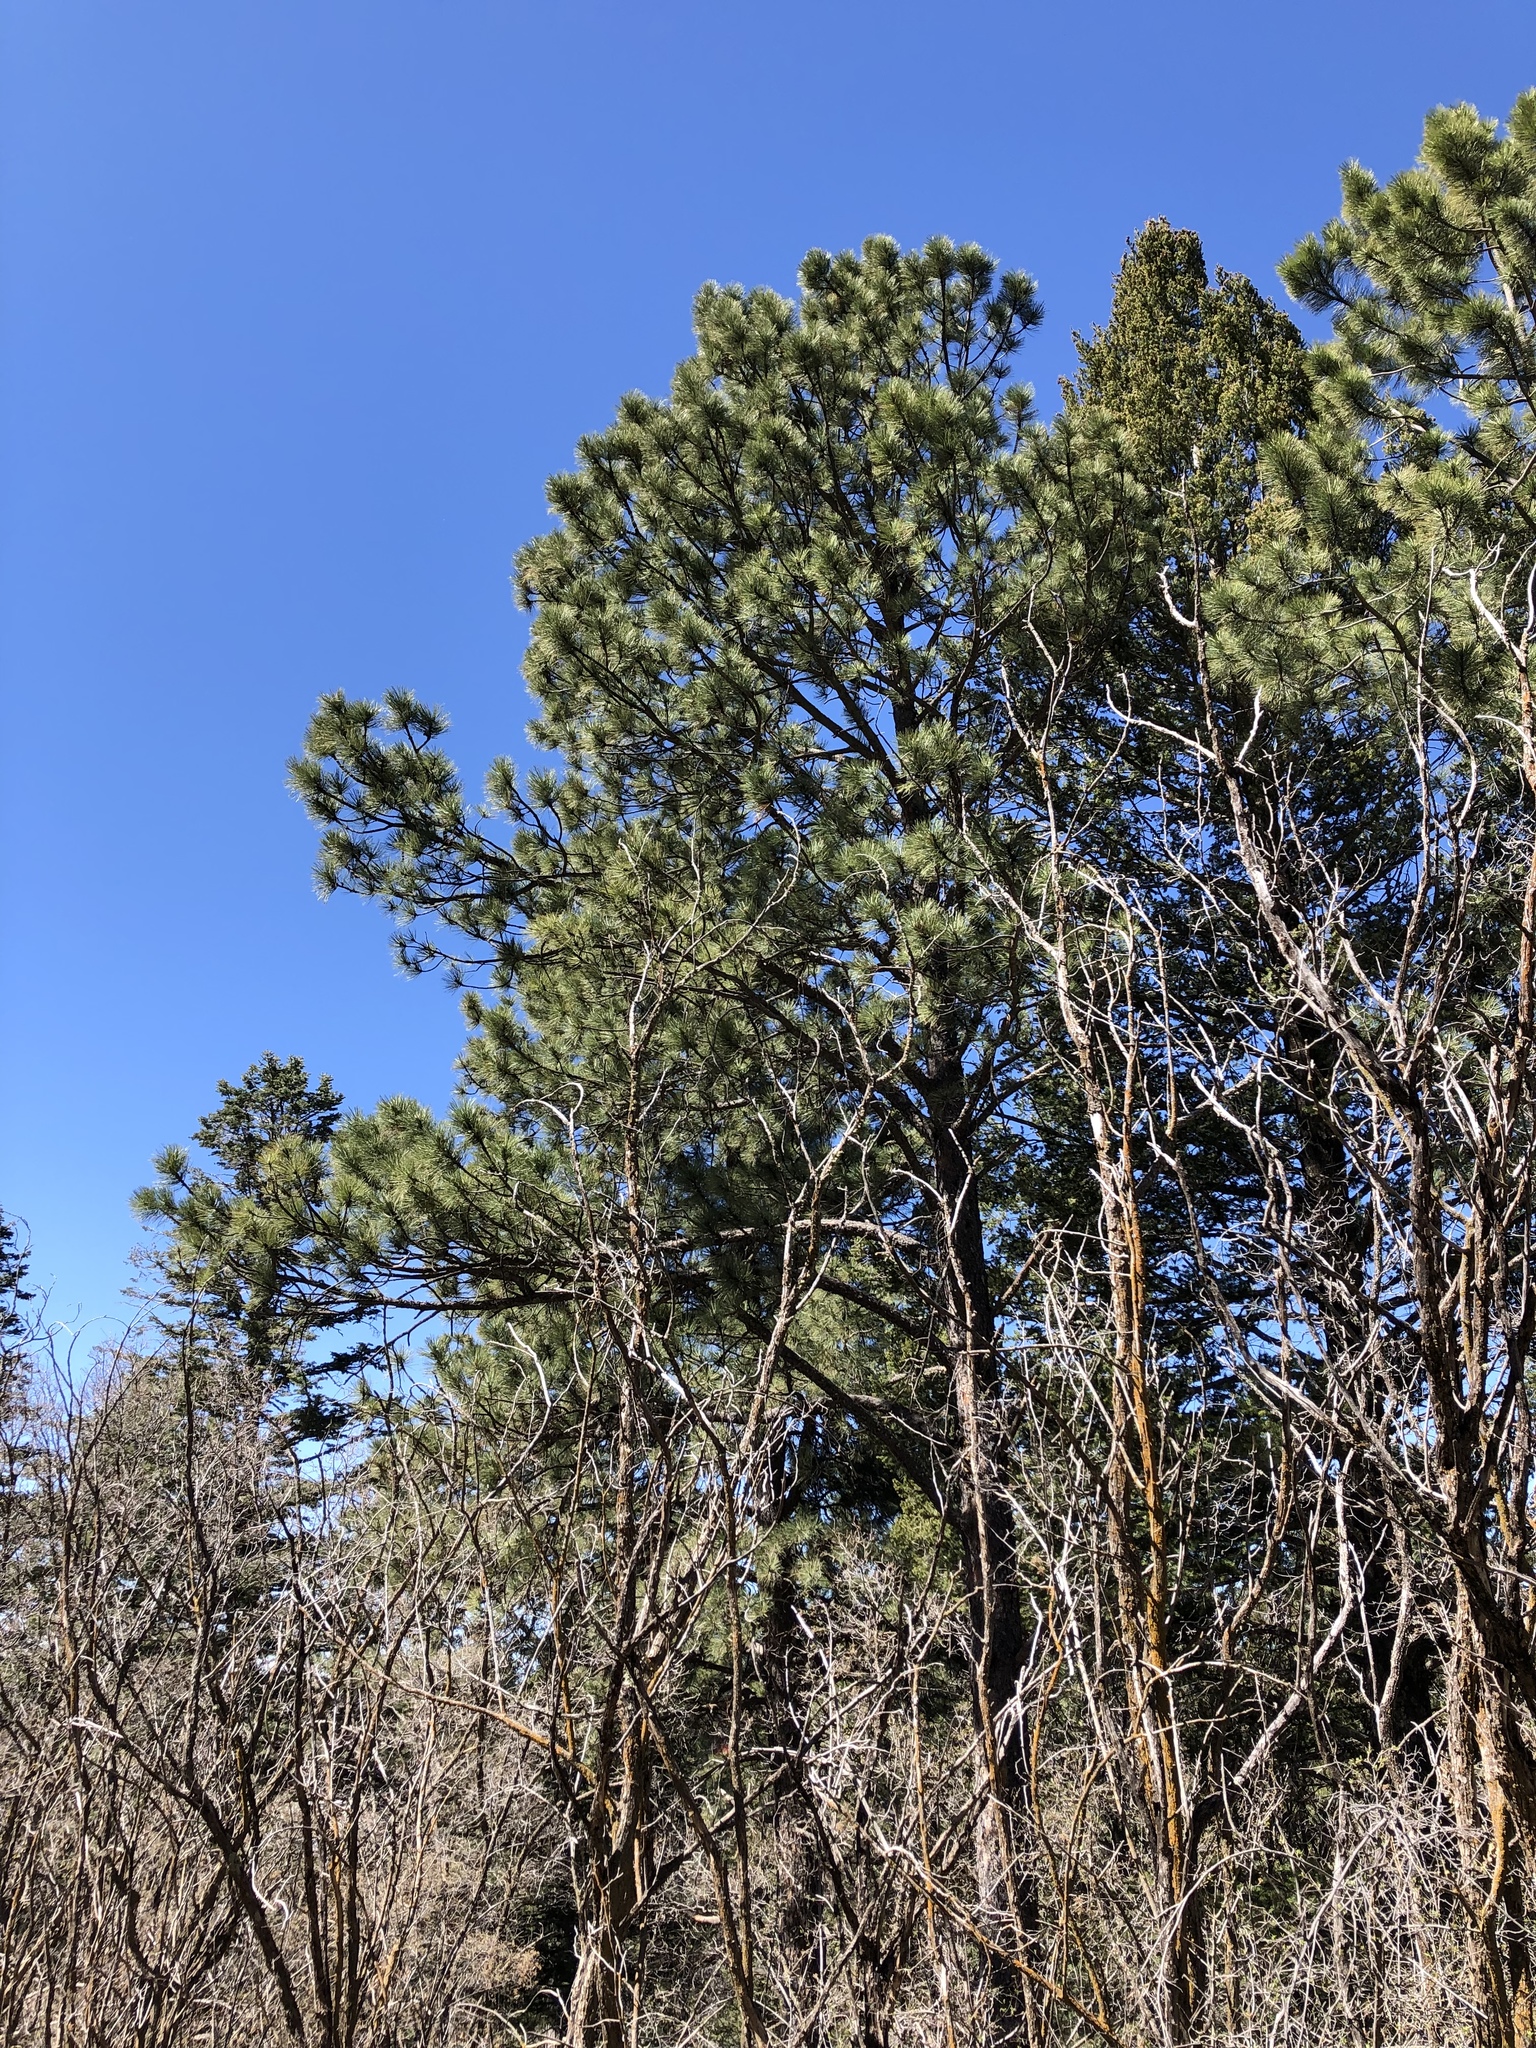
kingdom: Plantae
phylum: Tracheophyta
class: Pinopsida
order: Pinales
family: Pinaceae
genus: Pinus
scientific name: Pinus ponderosa
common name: Western yellow-pine
